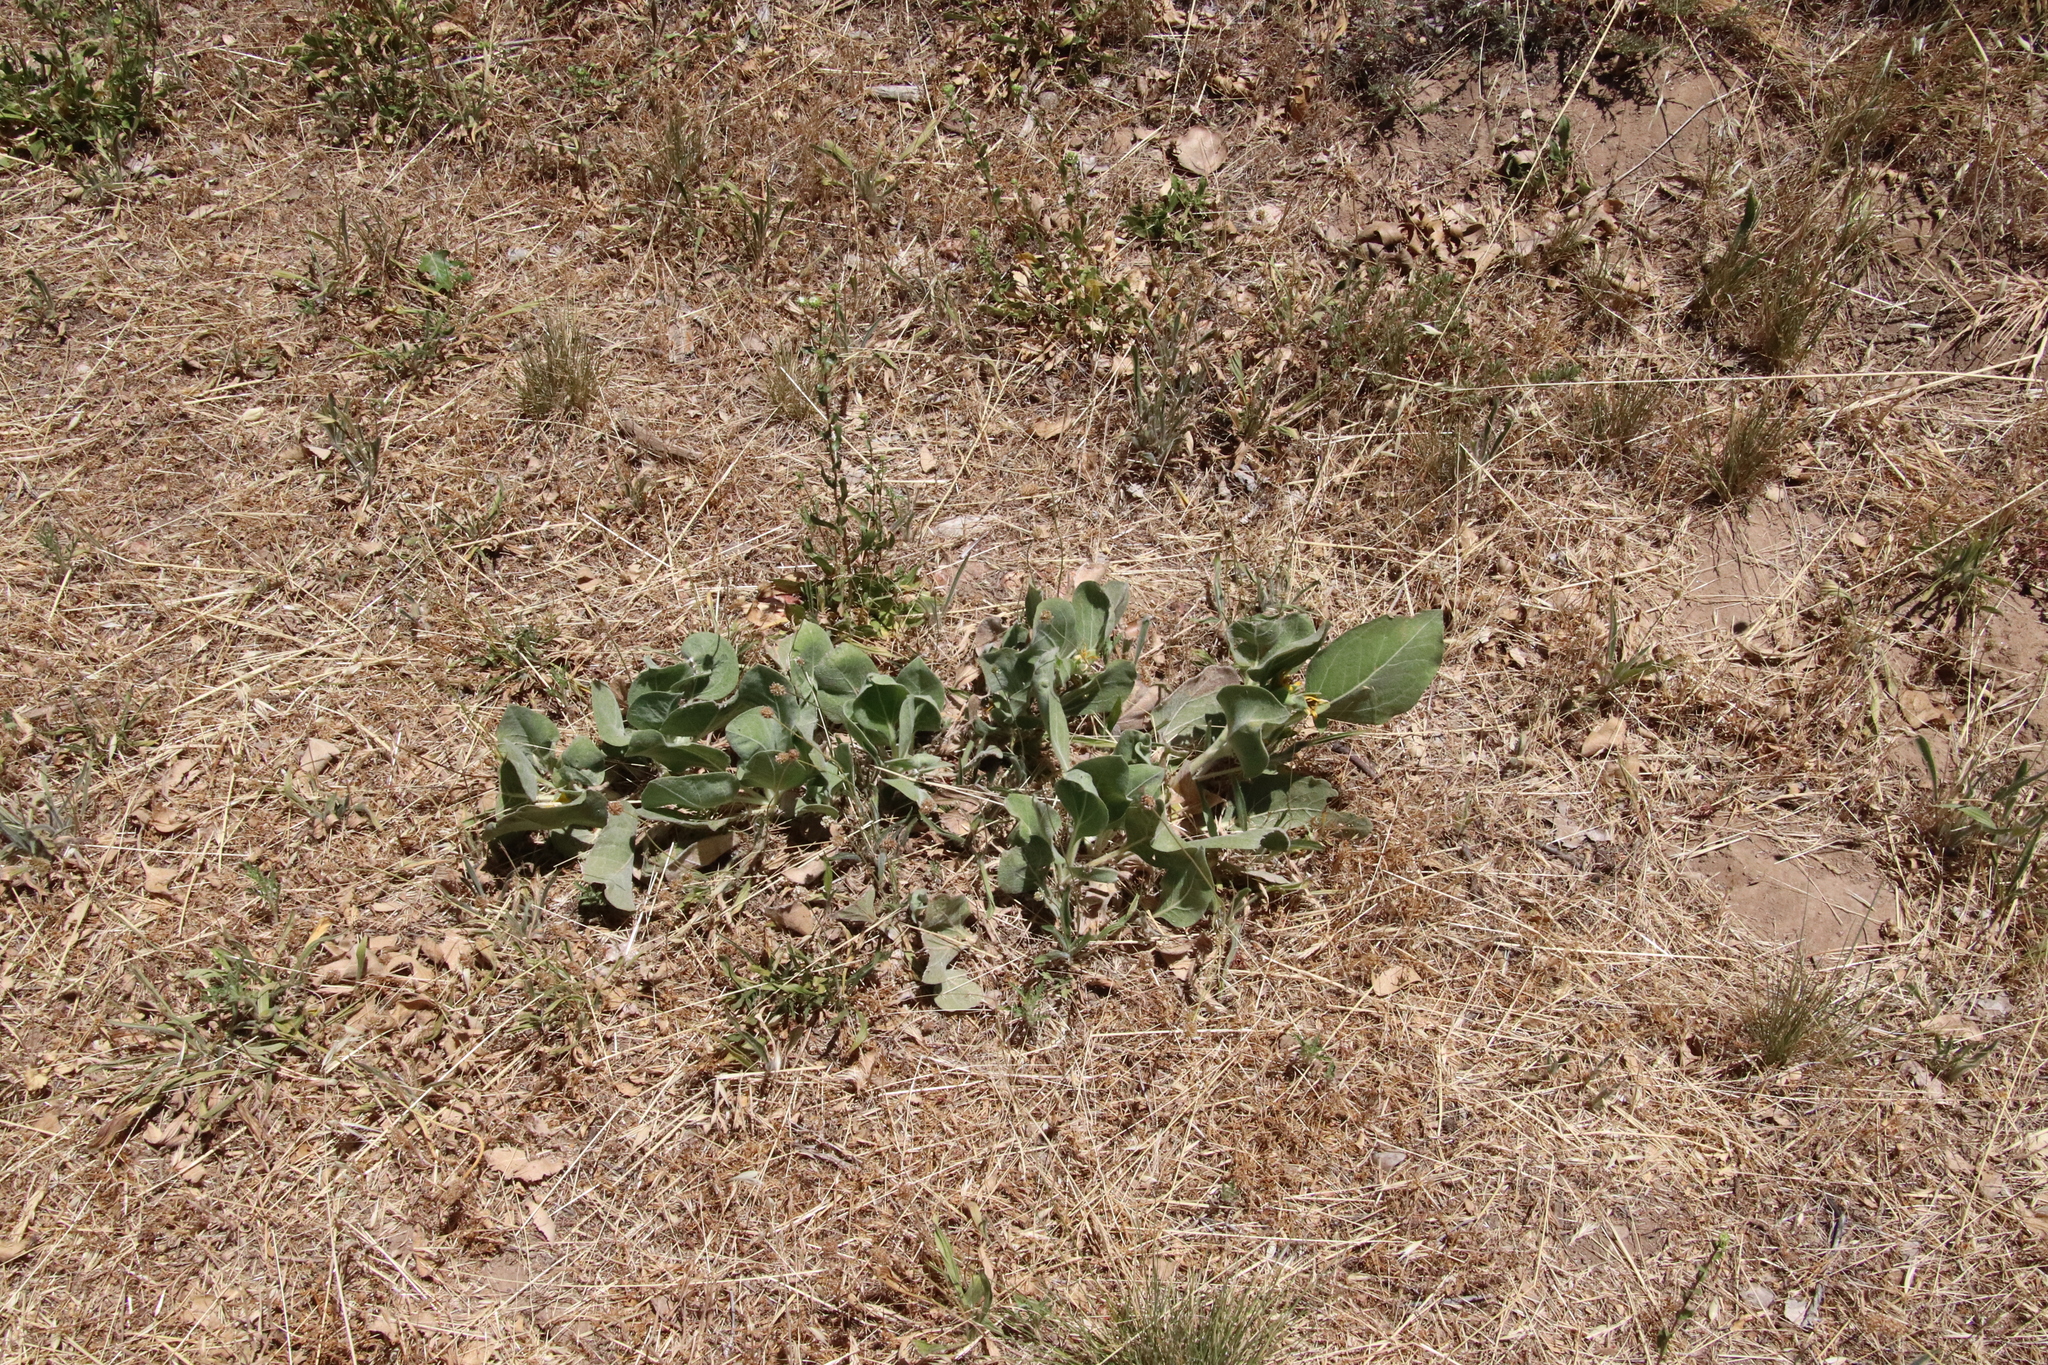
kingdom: Plantae
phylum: Tracheophyta
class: Magnoliopsida
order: Asterales
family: Asteraceae
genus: Agnorhiza
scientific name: Agnorhiza ovata
